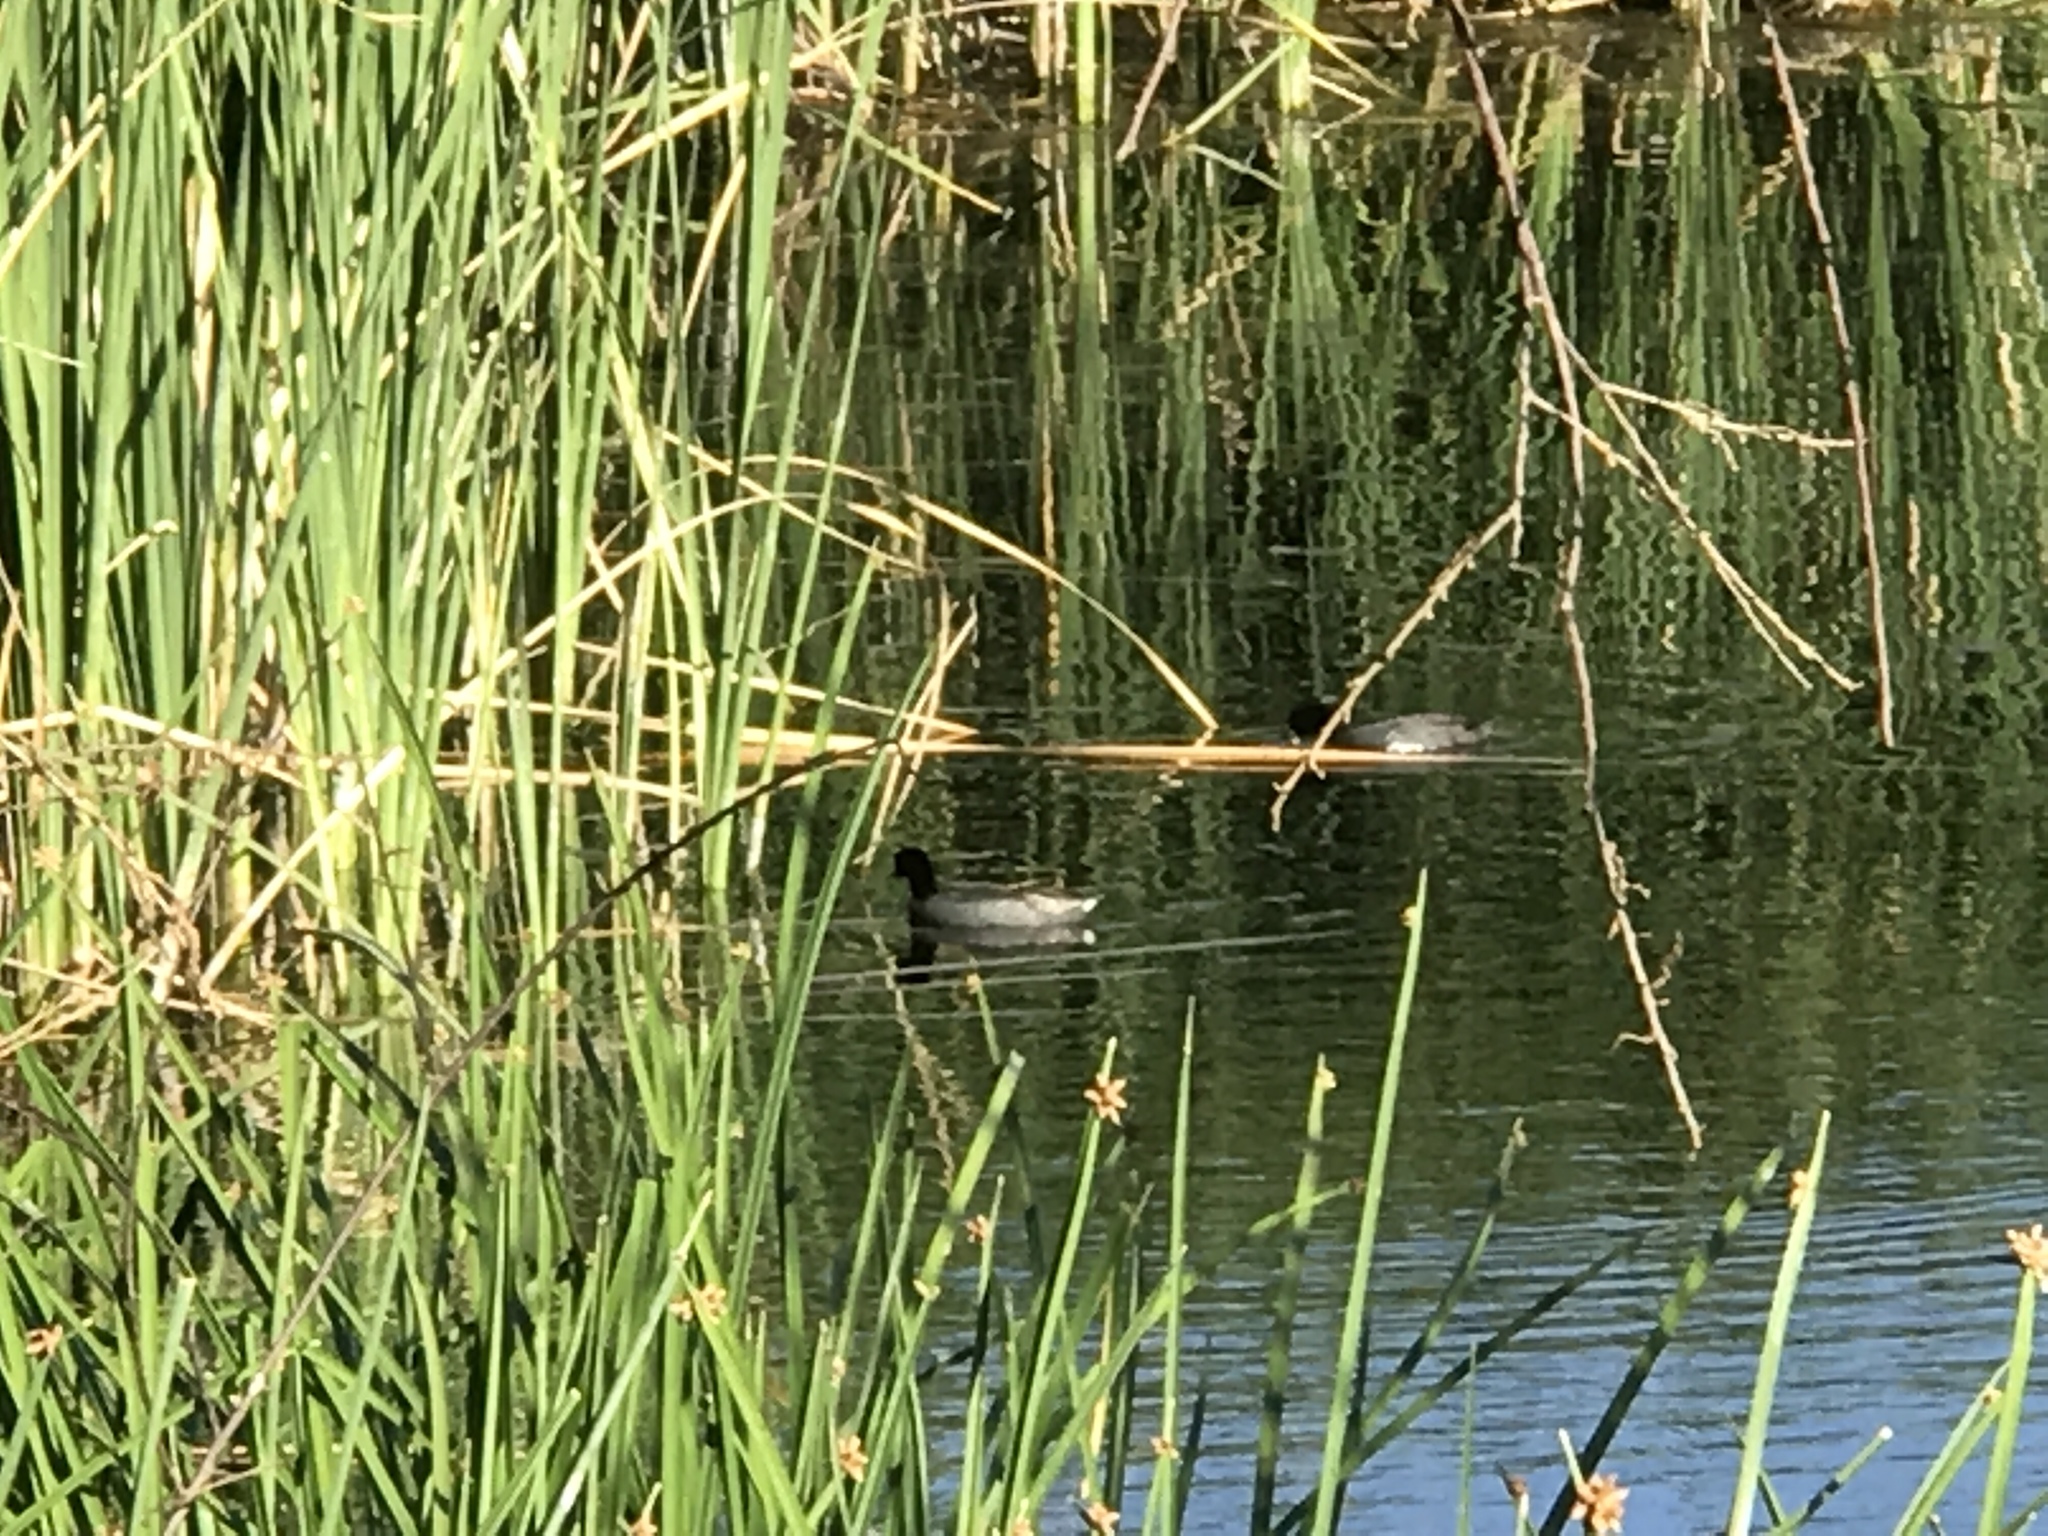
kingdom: Animalia
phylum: Chordata
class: Aves
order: Gruiformes
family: Rallidae
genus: Fulica
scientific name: Fulica americana
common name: American coot
